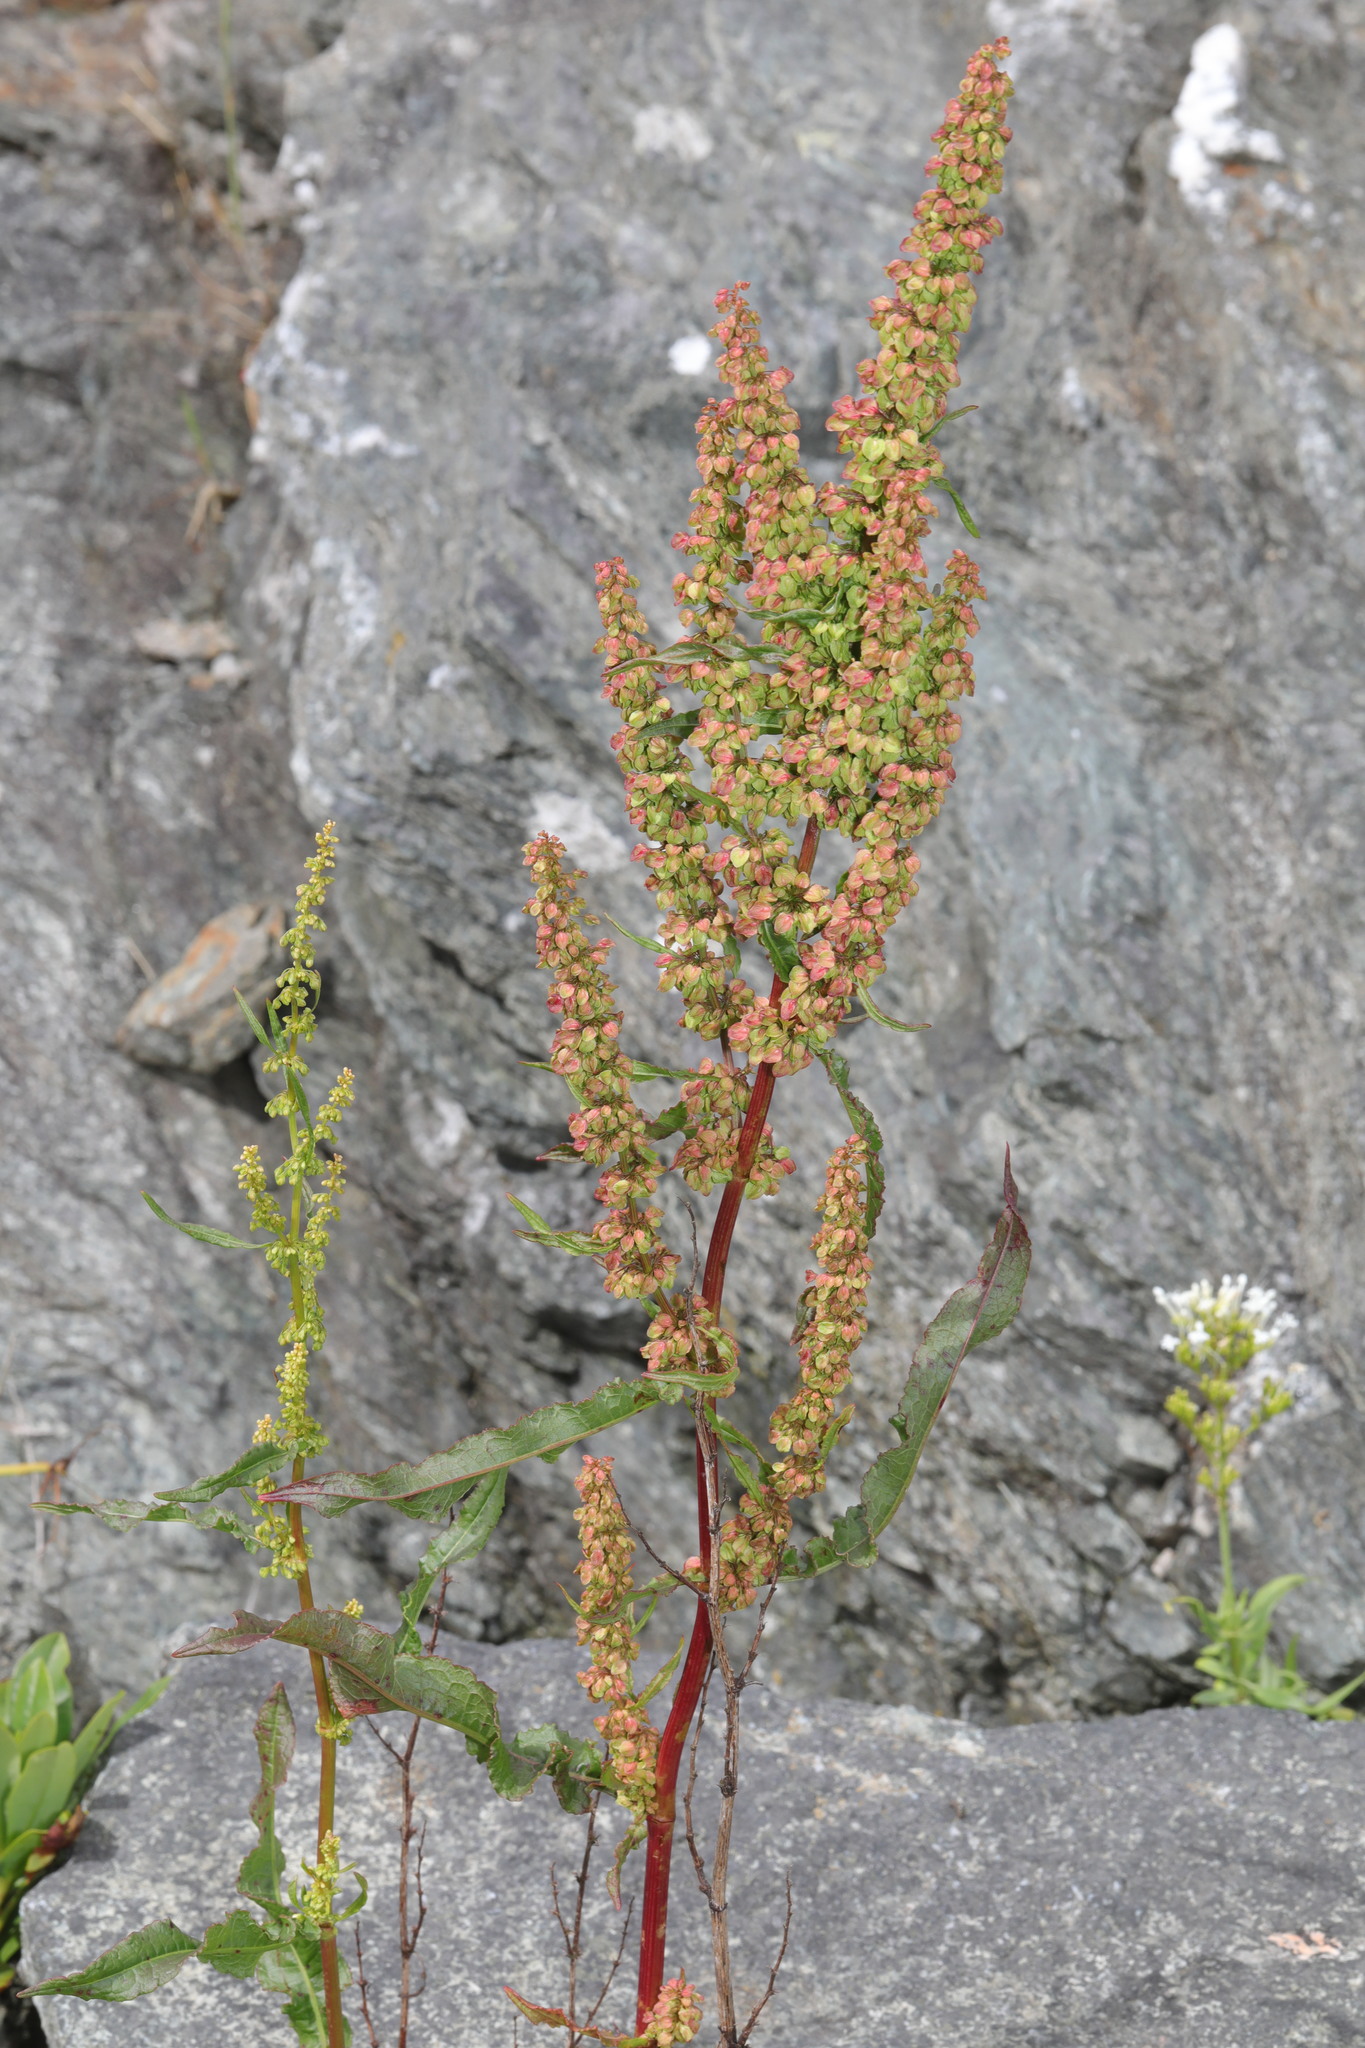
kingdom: Plantae
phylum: Tracheophyta
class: Magnoliopsida
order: Caryophyllales
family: Polygonaceae
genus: Rumex
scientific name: Rumex crispus
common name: Curled dock
